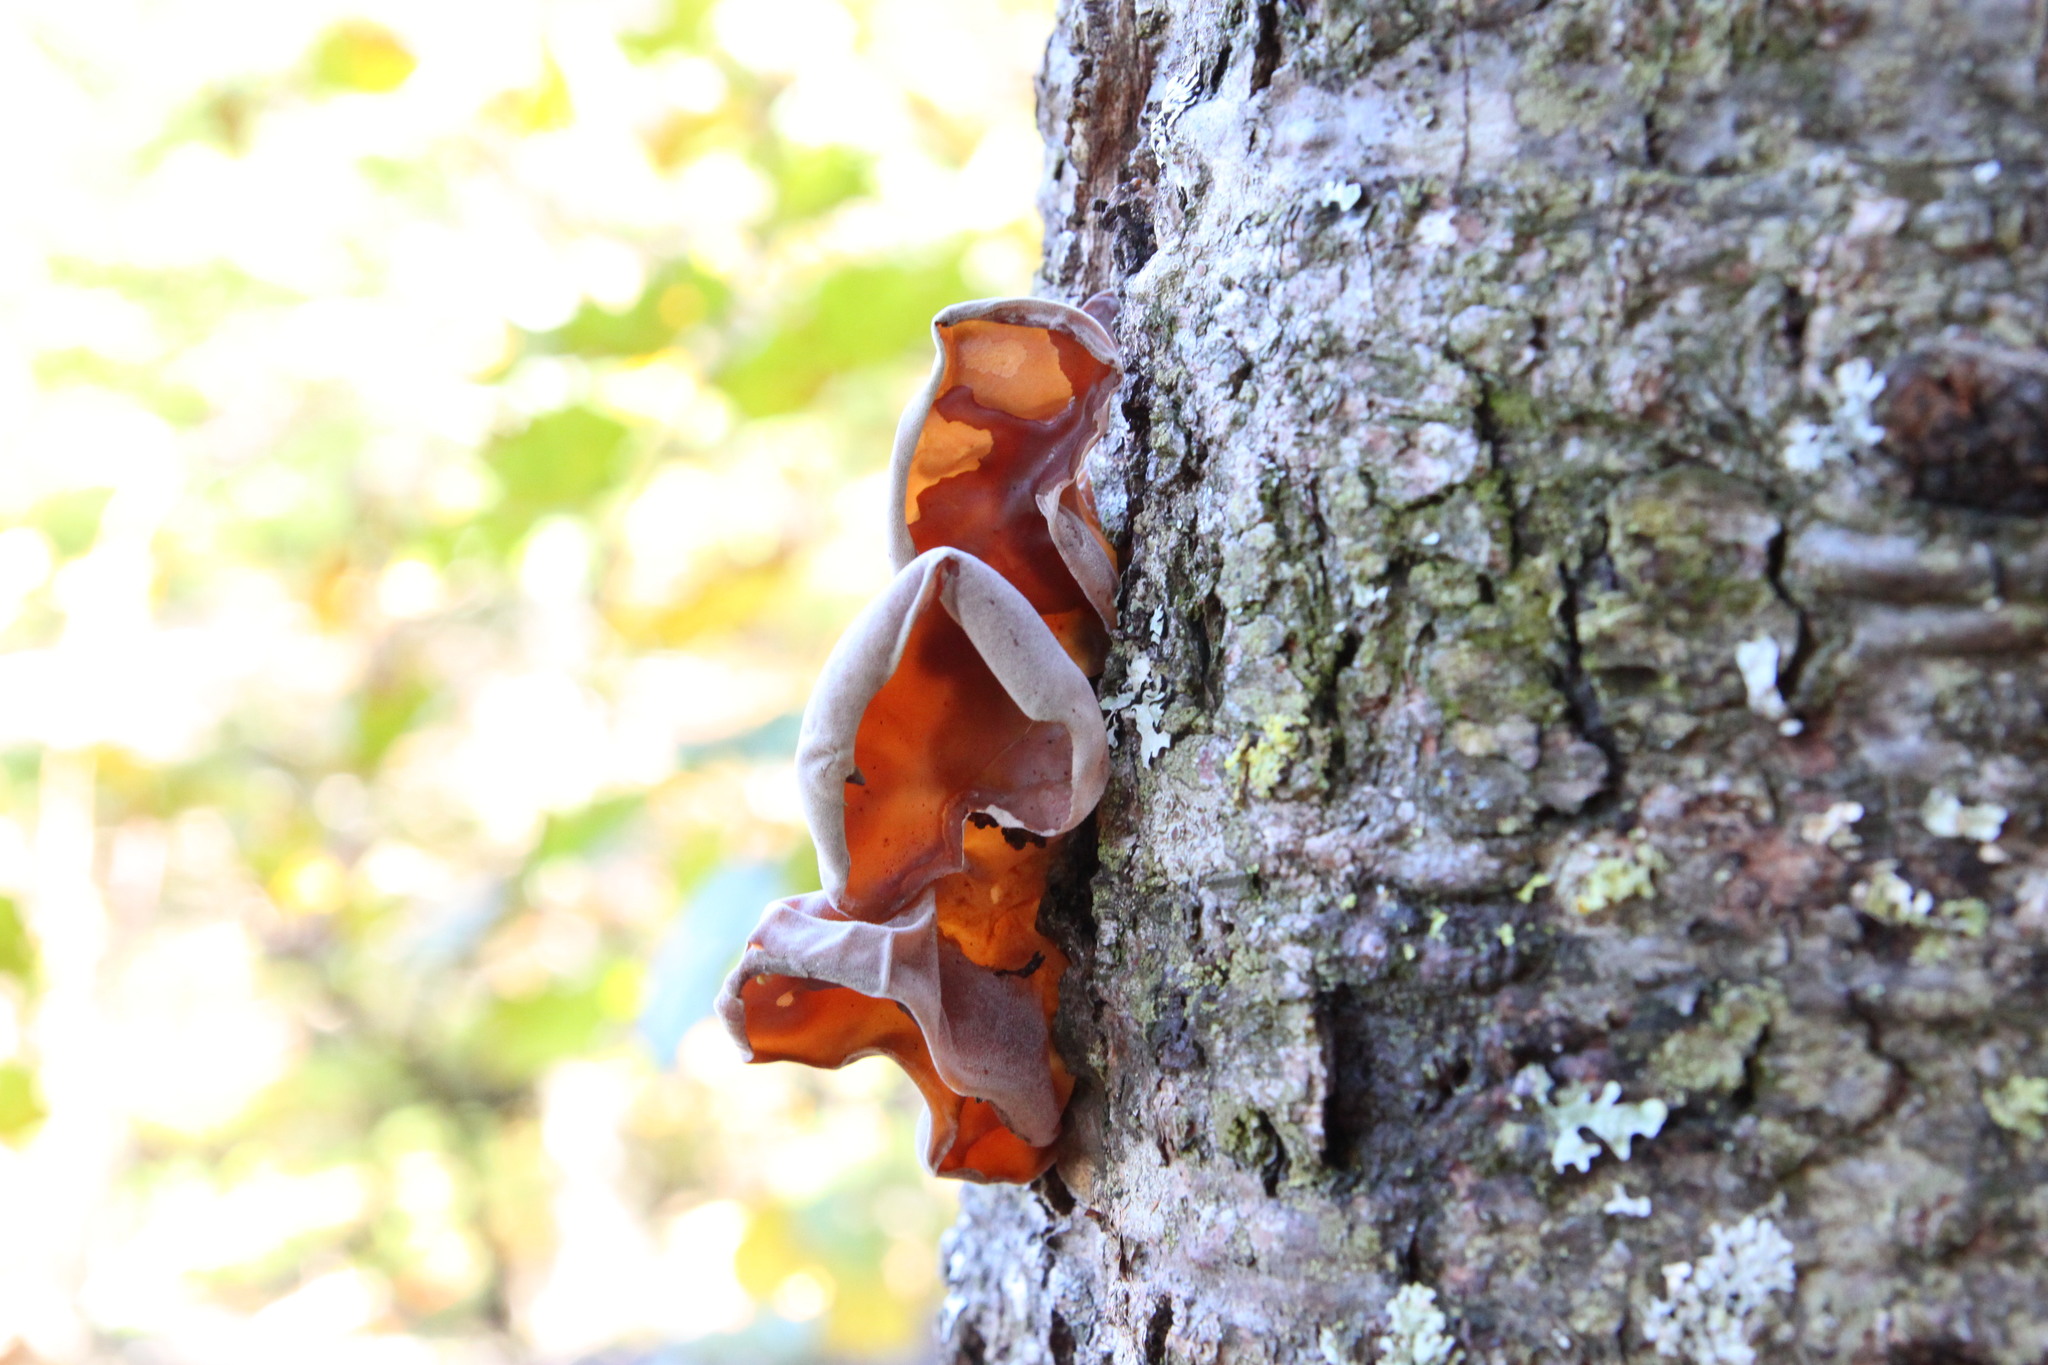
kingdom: Fungi
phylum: Basidiomycota
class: Agaricomycetes
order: Auriculariales
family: Auriculariaceae
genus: Auricularia
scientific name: Auricularia americana
